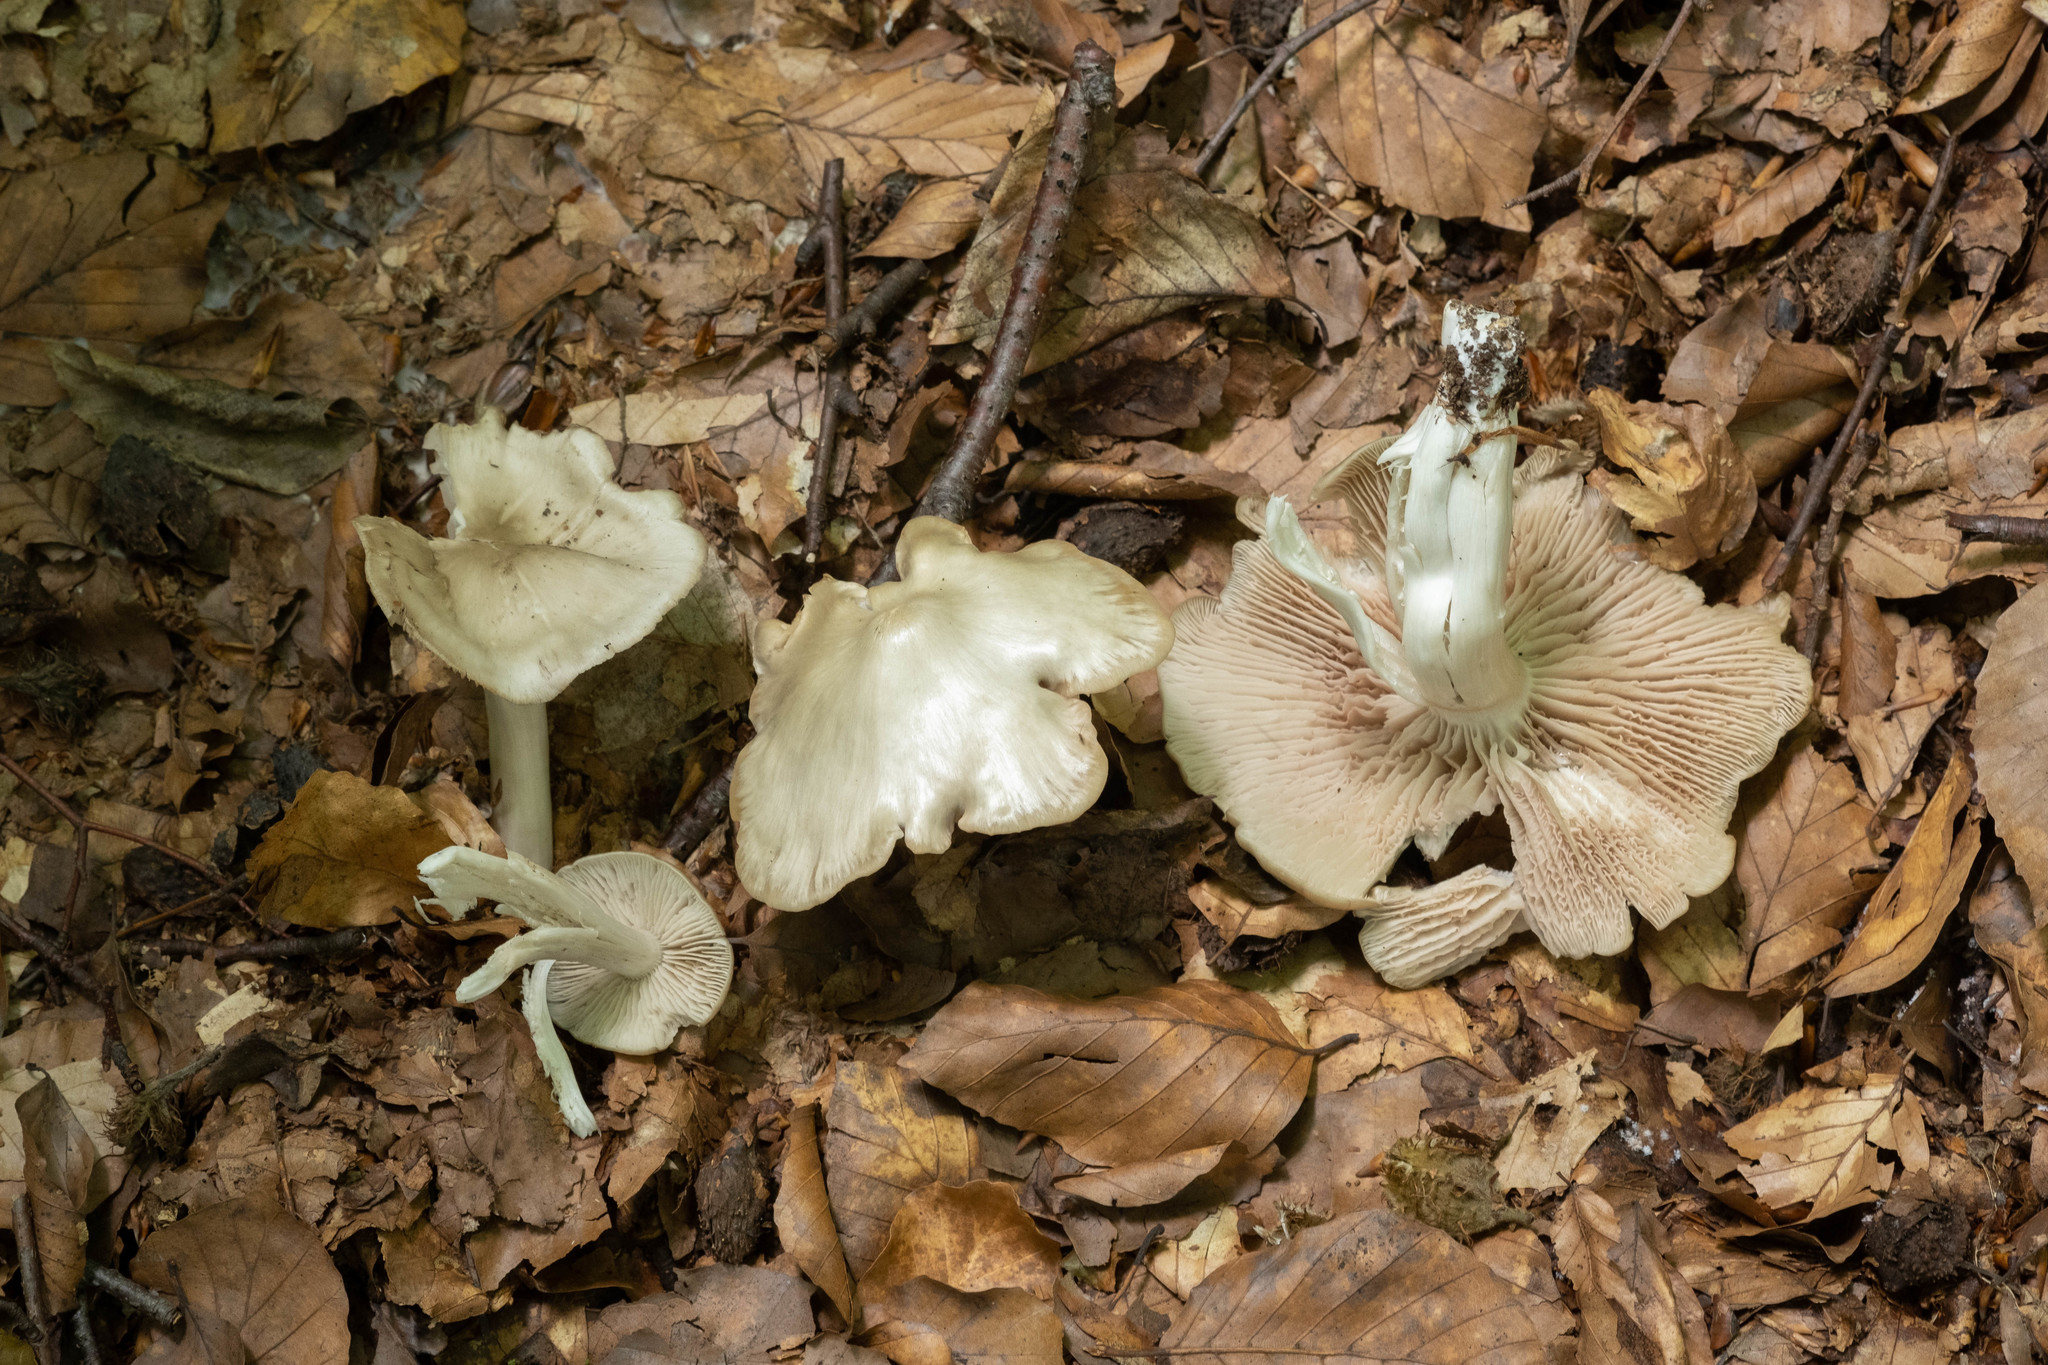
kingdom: Fungi
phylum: Basidiomycota
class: Agaricomycetes
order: Agaricales
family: Entolomataceae
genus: Entoloma
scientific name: Entoloma rhodopolium
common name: Wood pinkgill
